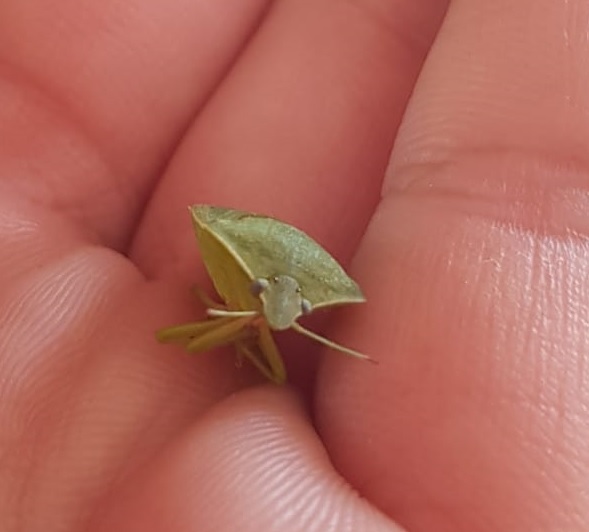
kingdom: Animalia
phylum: Arthropoda
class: Insecta
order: Hemiptera
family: Pentatomidae
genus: Nezara
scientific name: Nezara viridula
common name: Southern green stink bug
